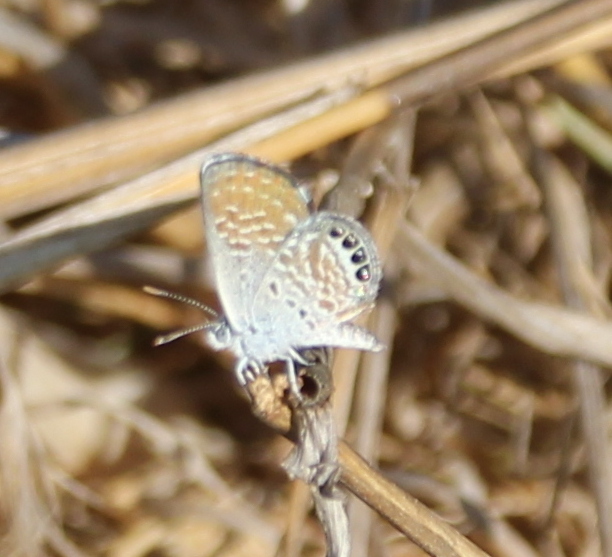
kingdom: Animalia
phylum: Arthropoda
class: Insecta
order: Lepidoptera
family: Lycaenidae
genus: Brephidium
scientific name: Brephidium exilis
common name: Pygmy blue
